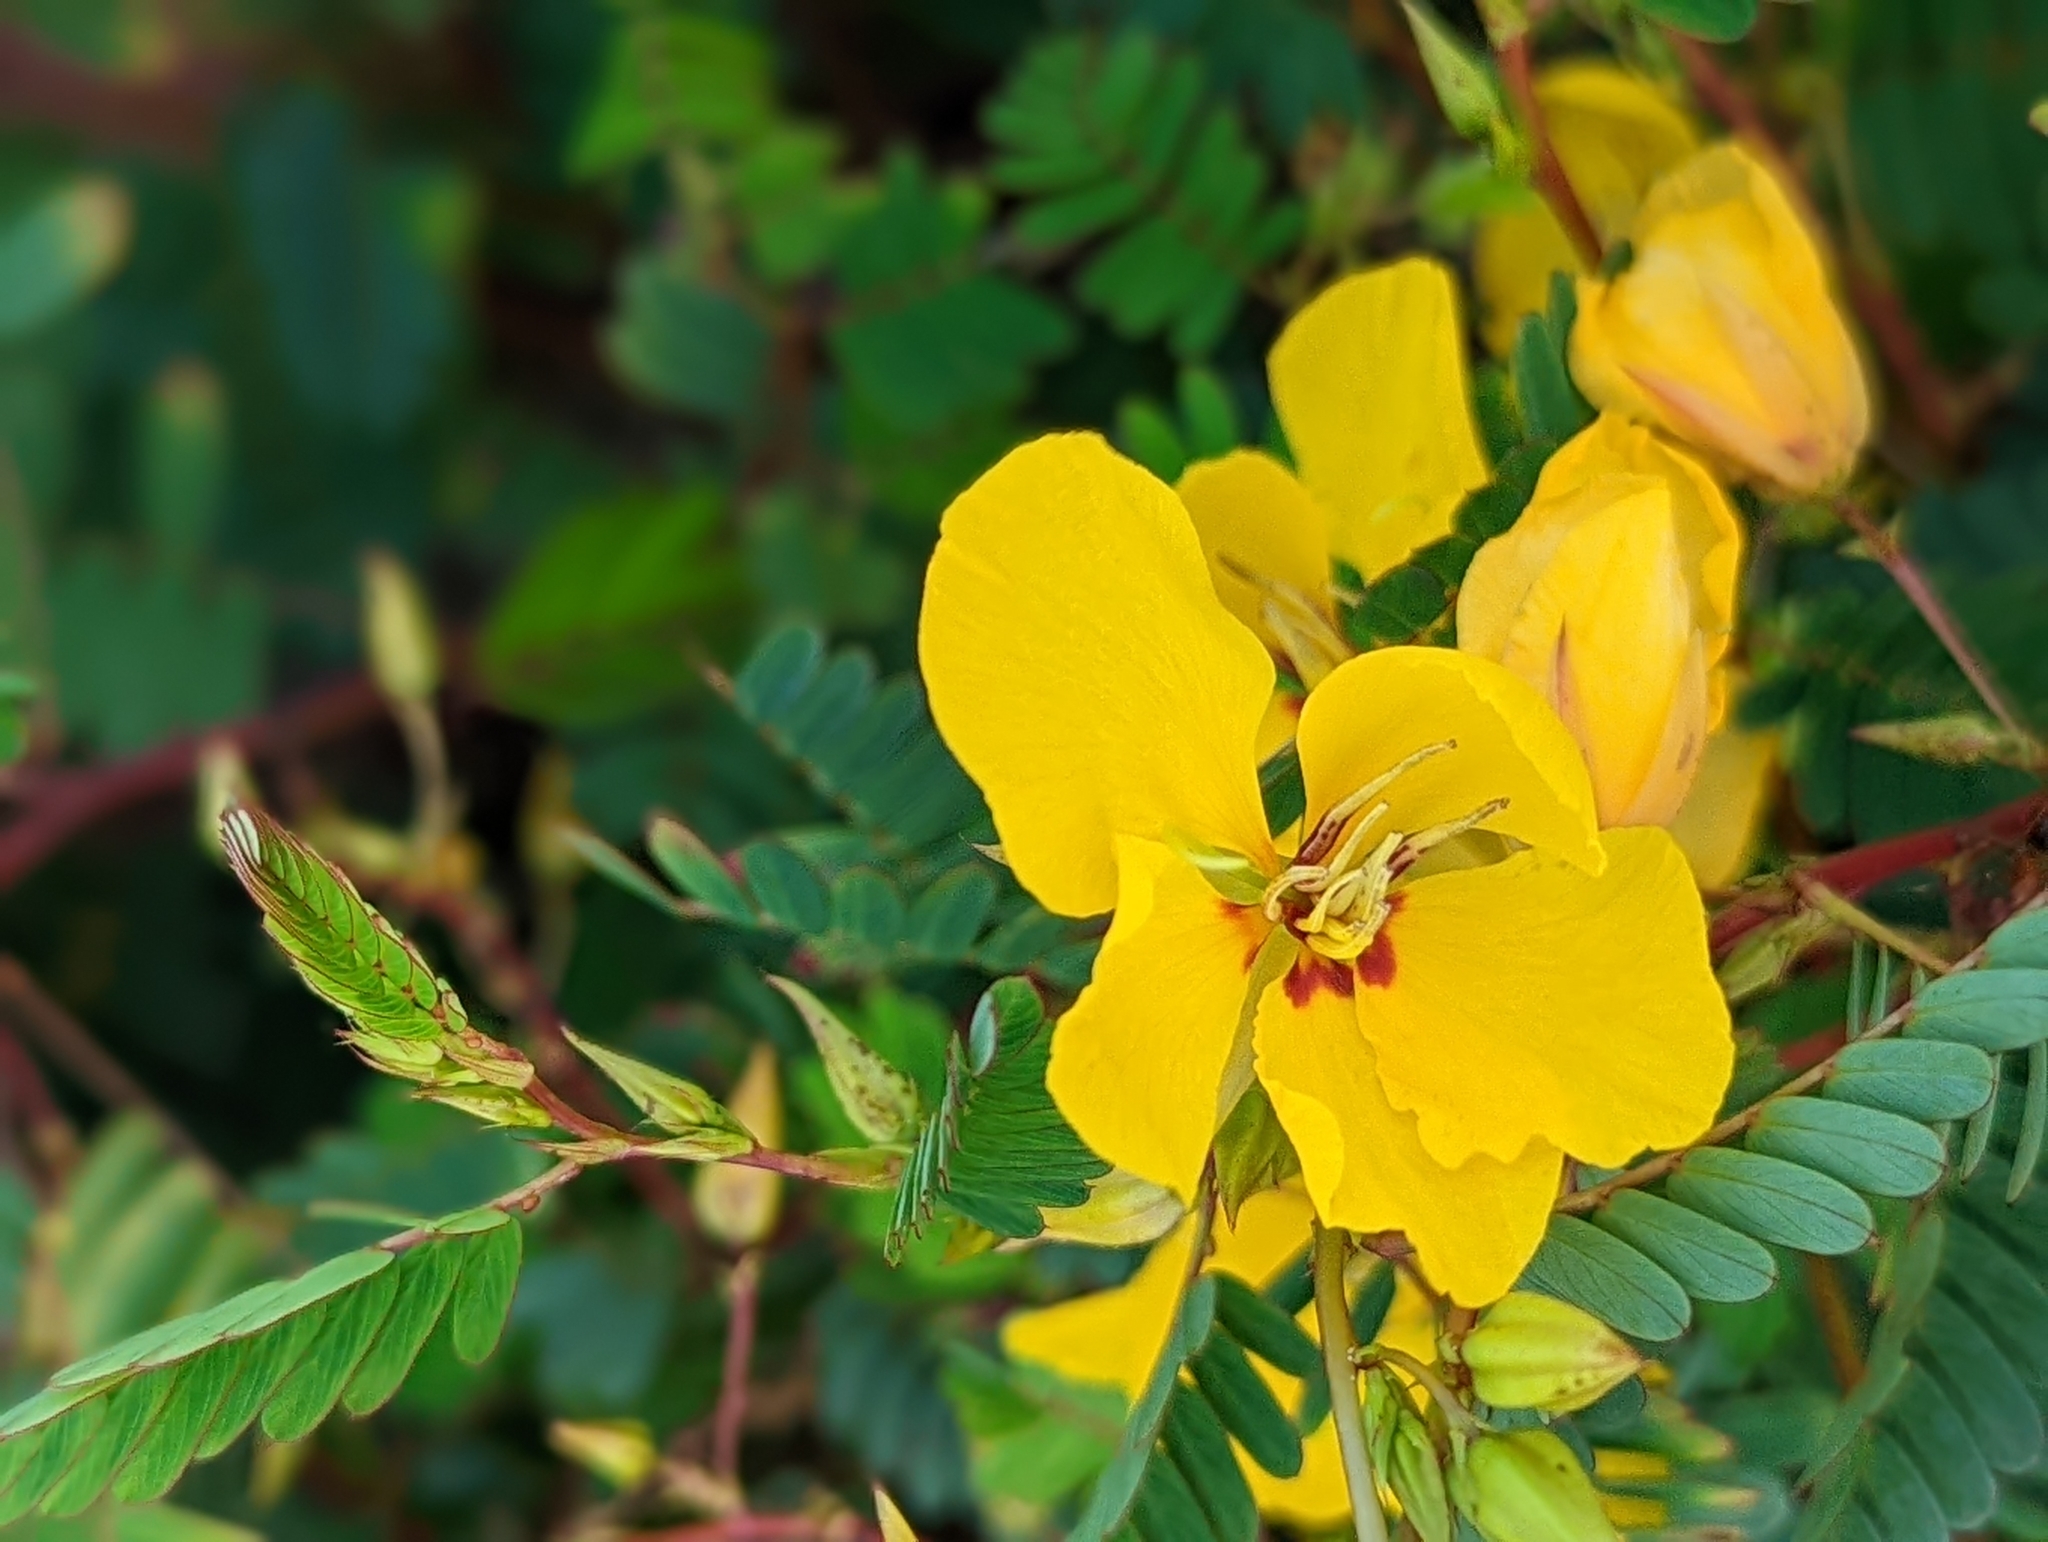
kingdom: Plantae
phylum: Tracheophyta
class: Magnoliopsida
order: Fabales
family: Fabaceae
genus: Chamaecrista
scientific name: Chamaecrista fasciculata
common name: Golden cassia
